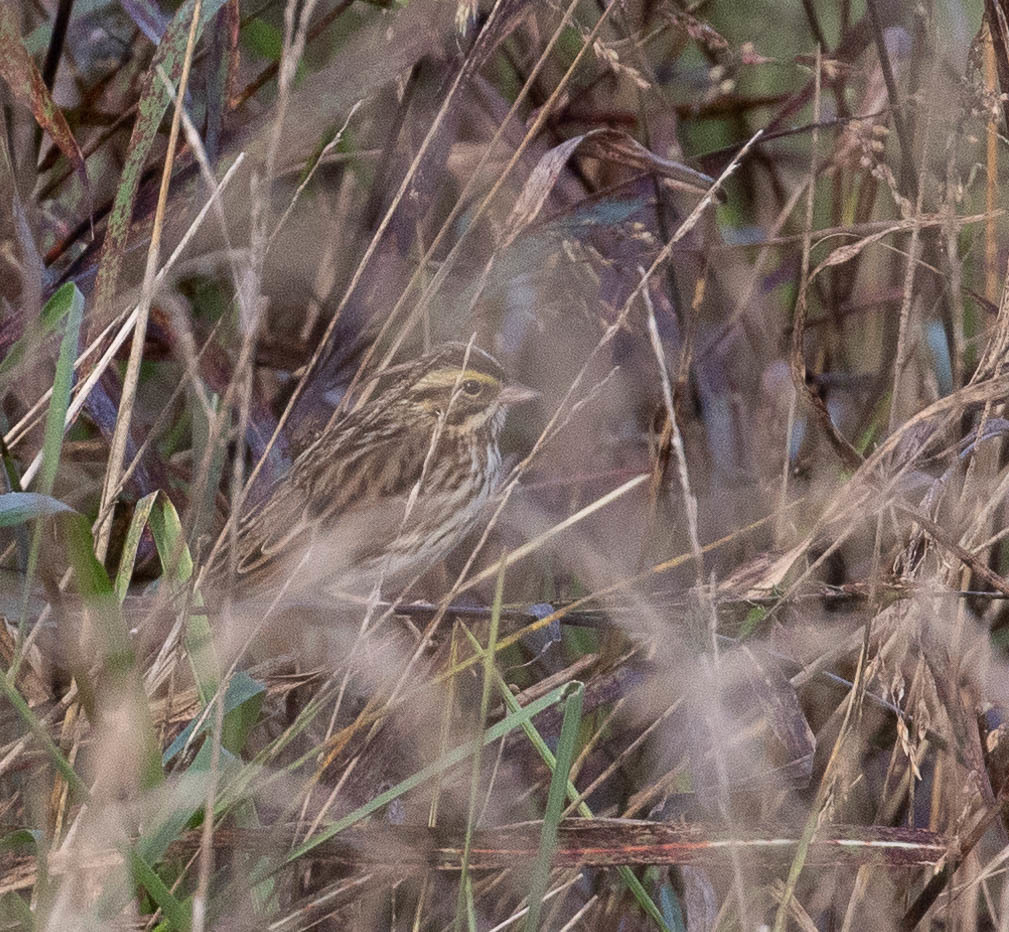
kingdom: Animalia
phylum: Chordata
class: Aves
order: Passeriformes
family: Passerellidae
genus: Passerculus
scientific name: Passerculus sandwichensis
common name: Savannah sparrow
